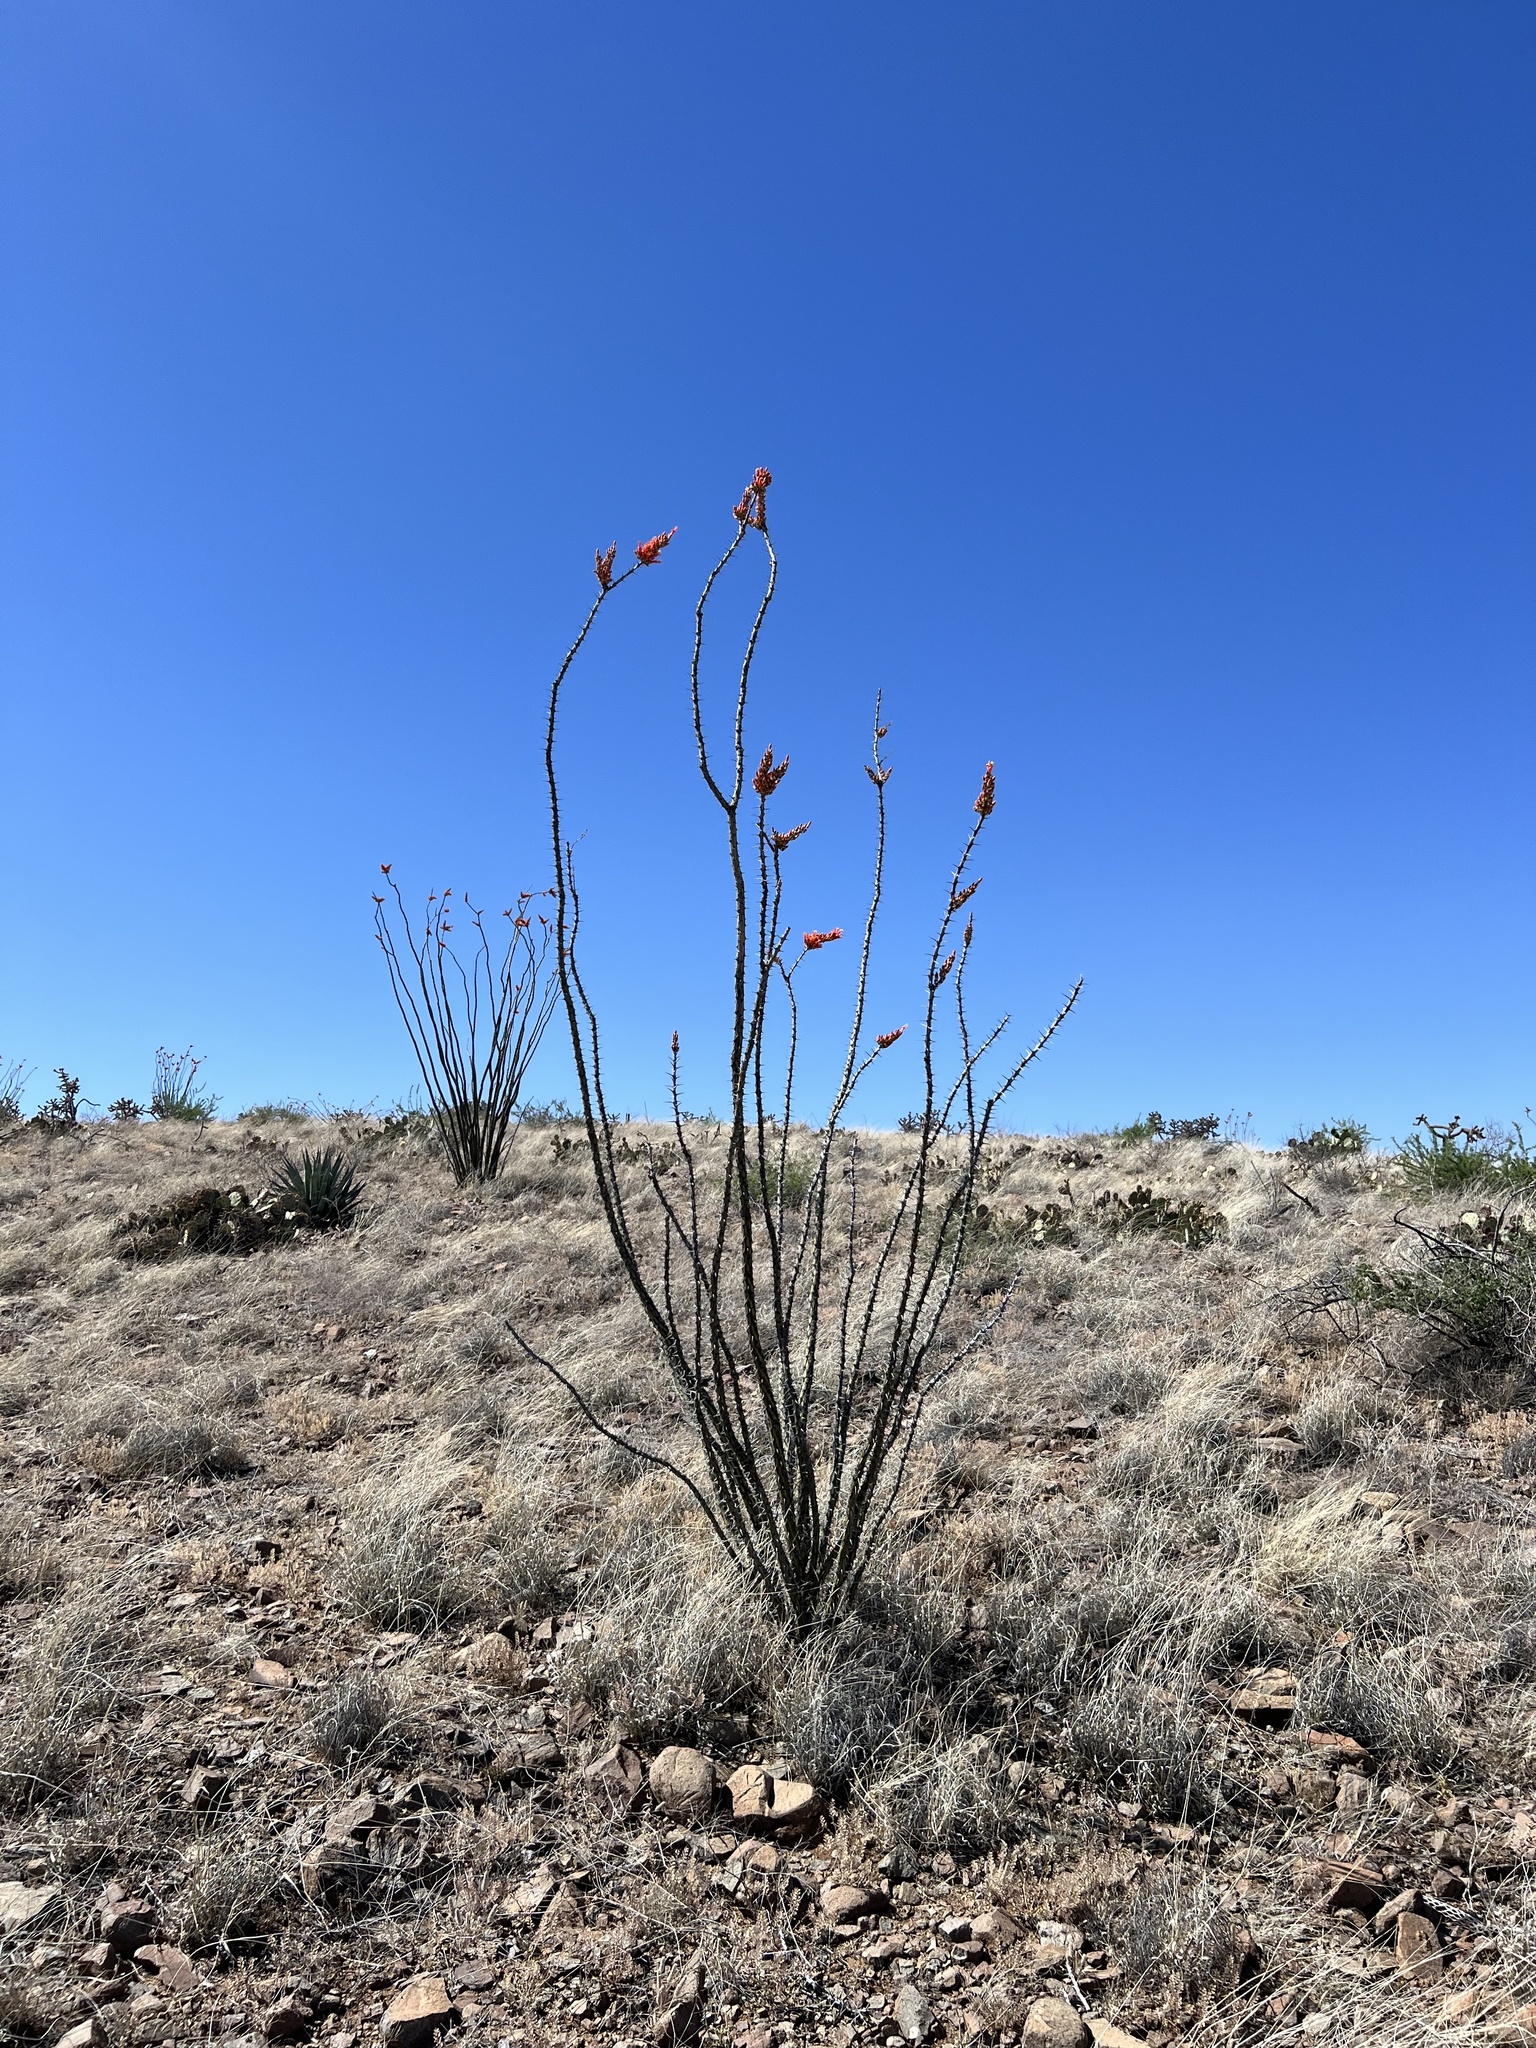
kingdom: Plantae
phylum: Tracheophyta
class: Magnoliopsida
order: Ericales
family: Fouquieriaceae
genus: Fouquieria
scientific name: Fouquieria splendens
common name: Vine-cactus
